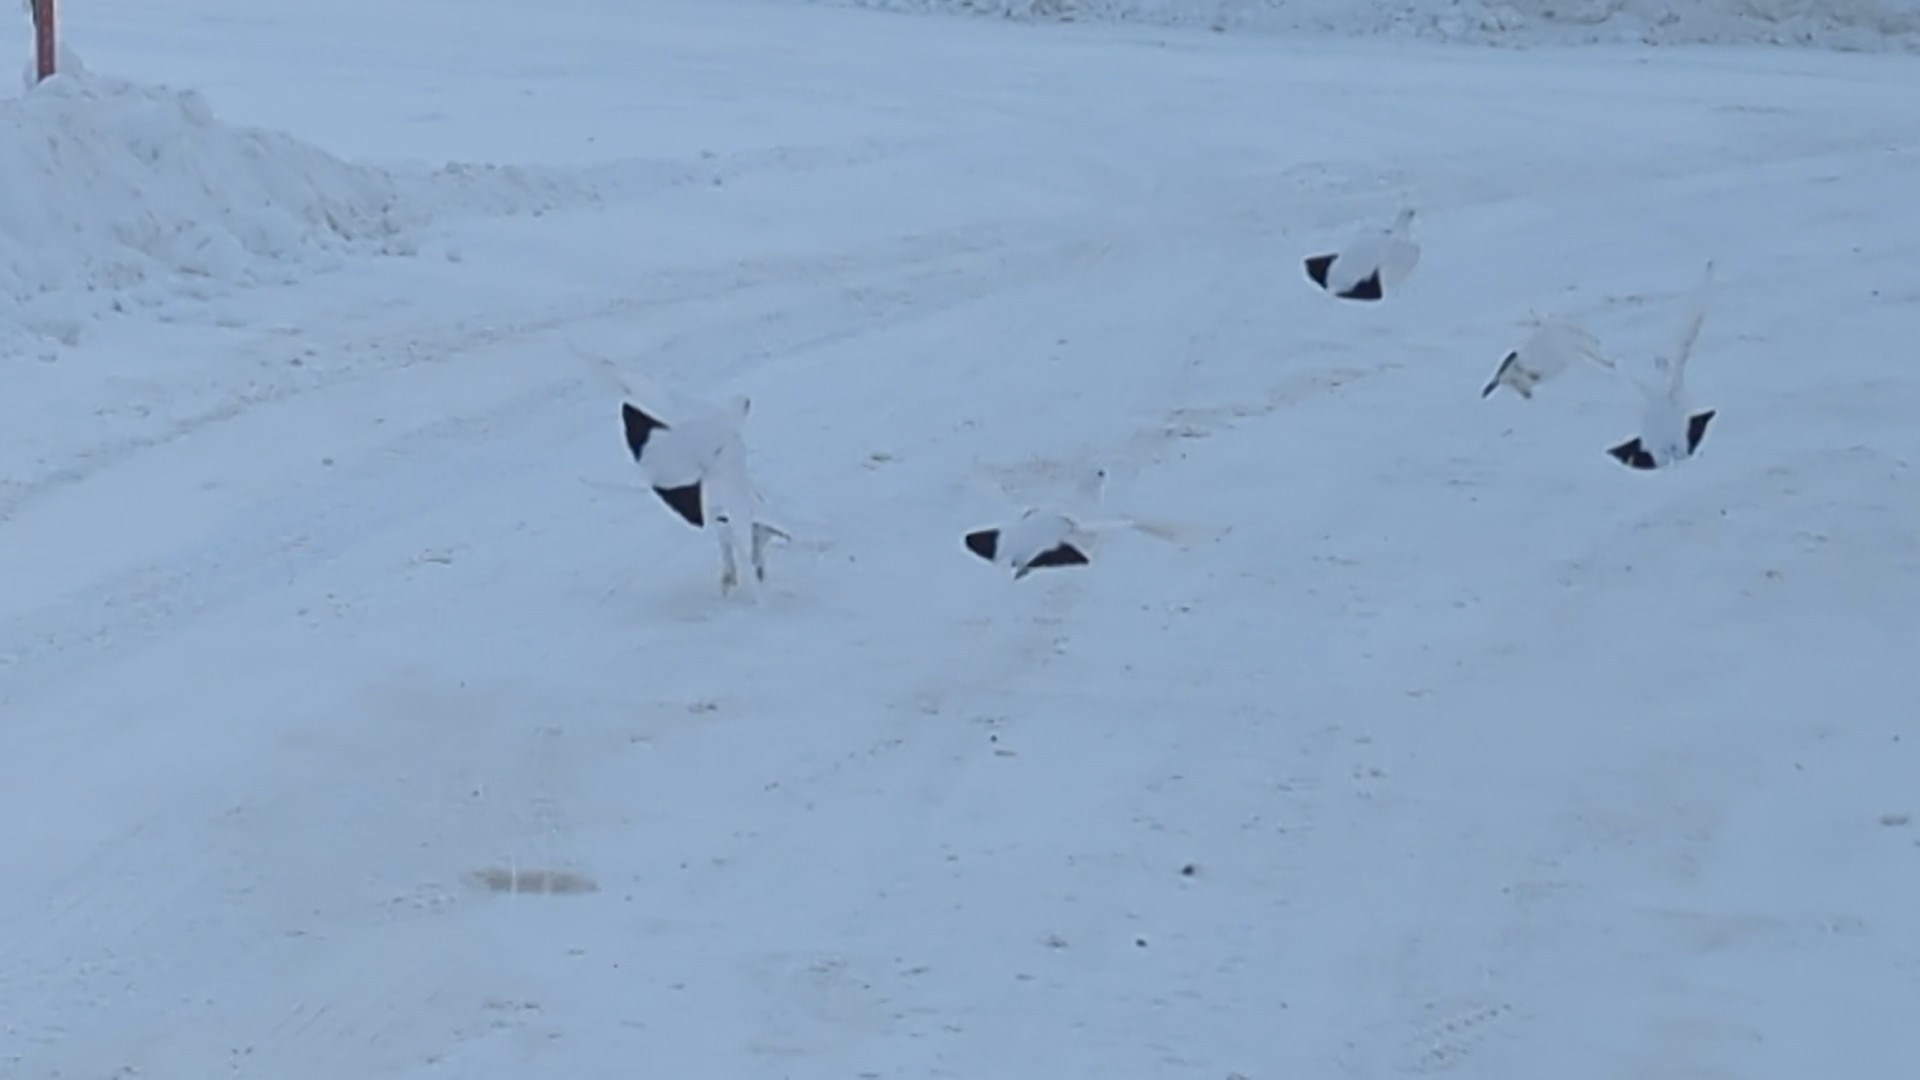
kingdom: Animalia
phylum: Chordata
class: Aves
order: Galliformes
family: Phasianidae
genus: Lagopus
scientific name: Lagopus lagopus
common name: Willow ptarmigan
